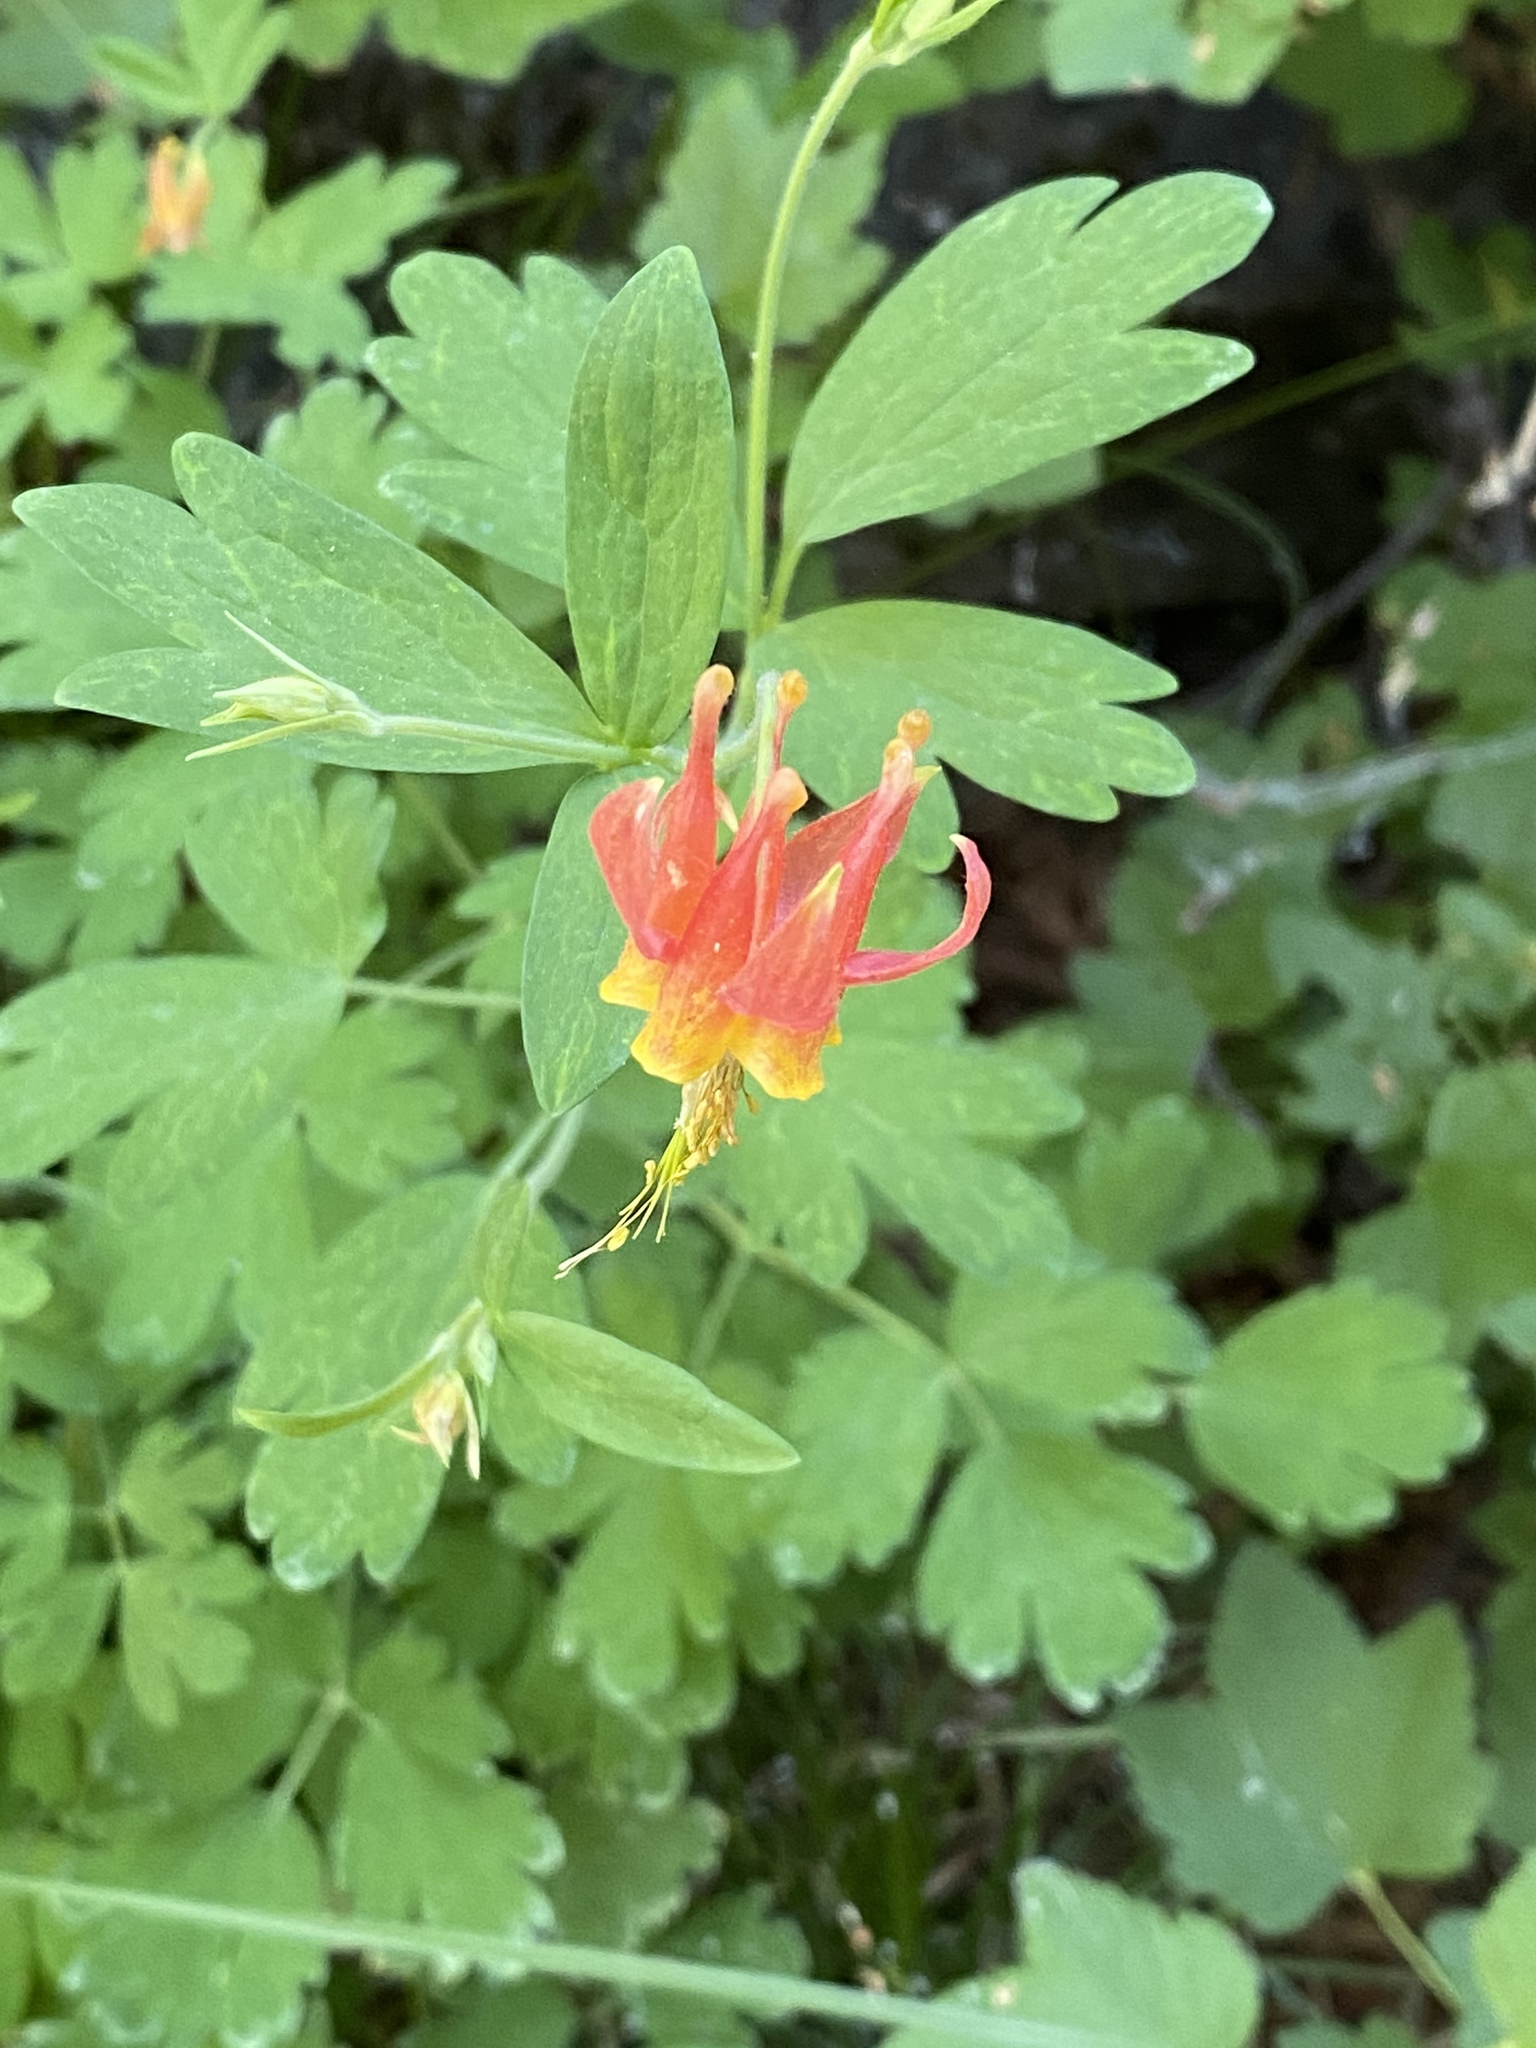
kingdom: Plantae
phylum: Tracheophyta
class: Magnoliopsida
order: Ranunculales
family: Ranunculaceae
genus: Aquilegia
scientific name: Aquilegia formosa
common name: Sitka columbine
